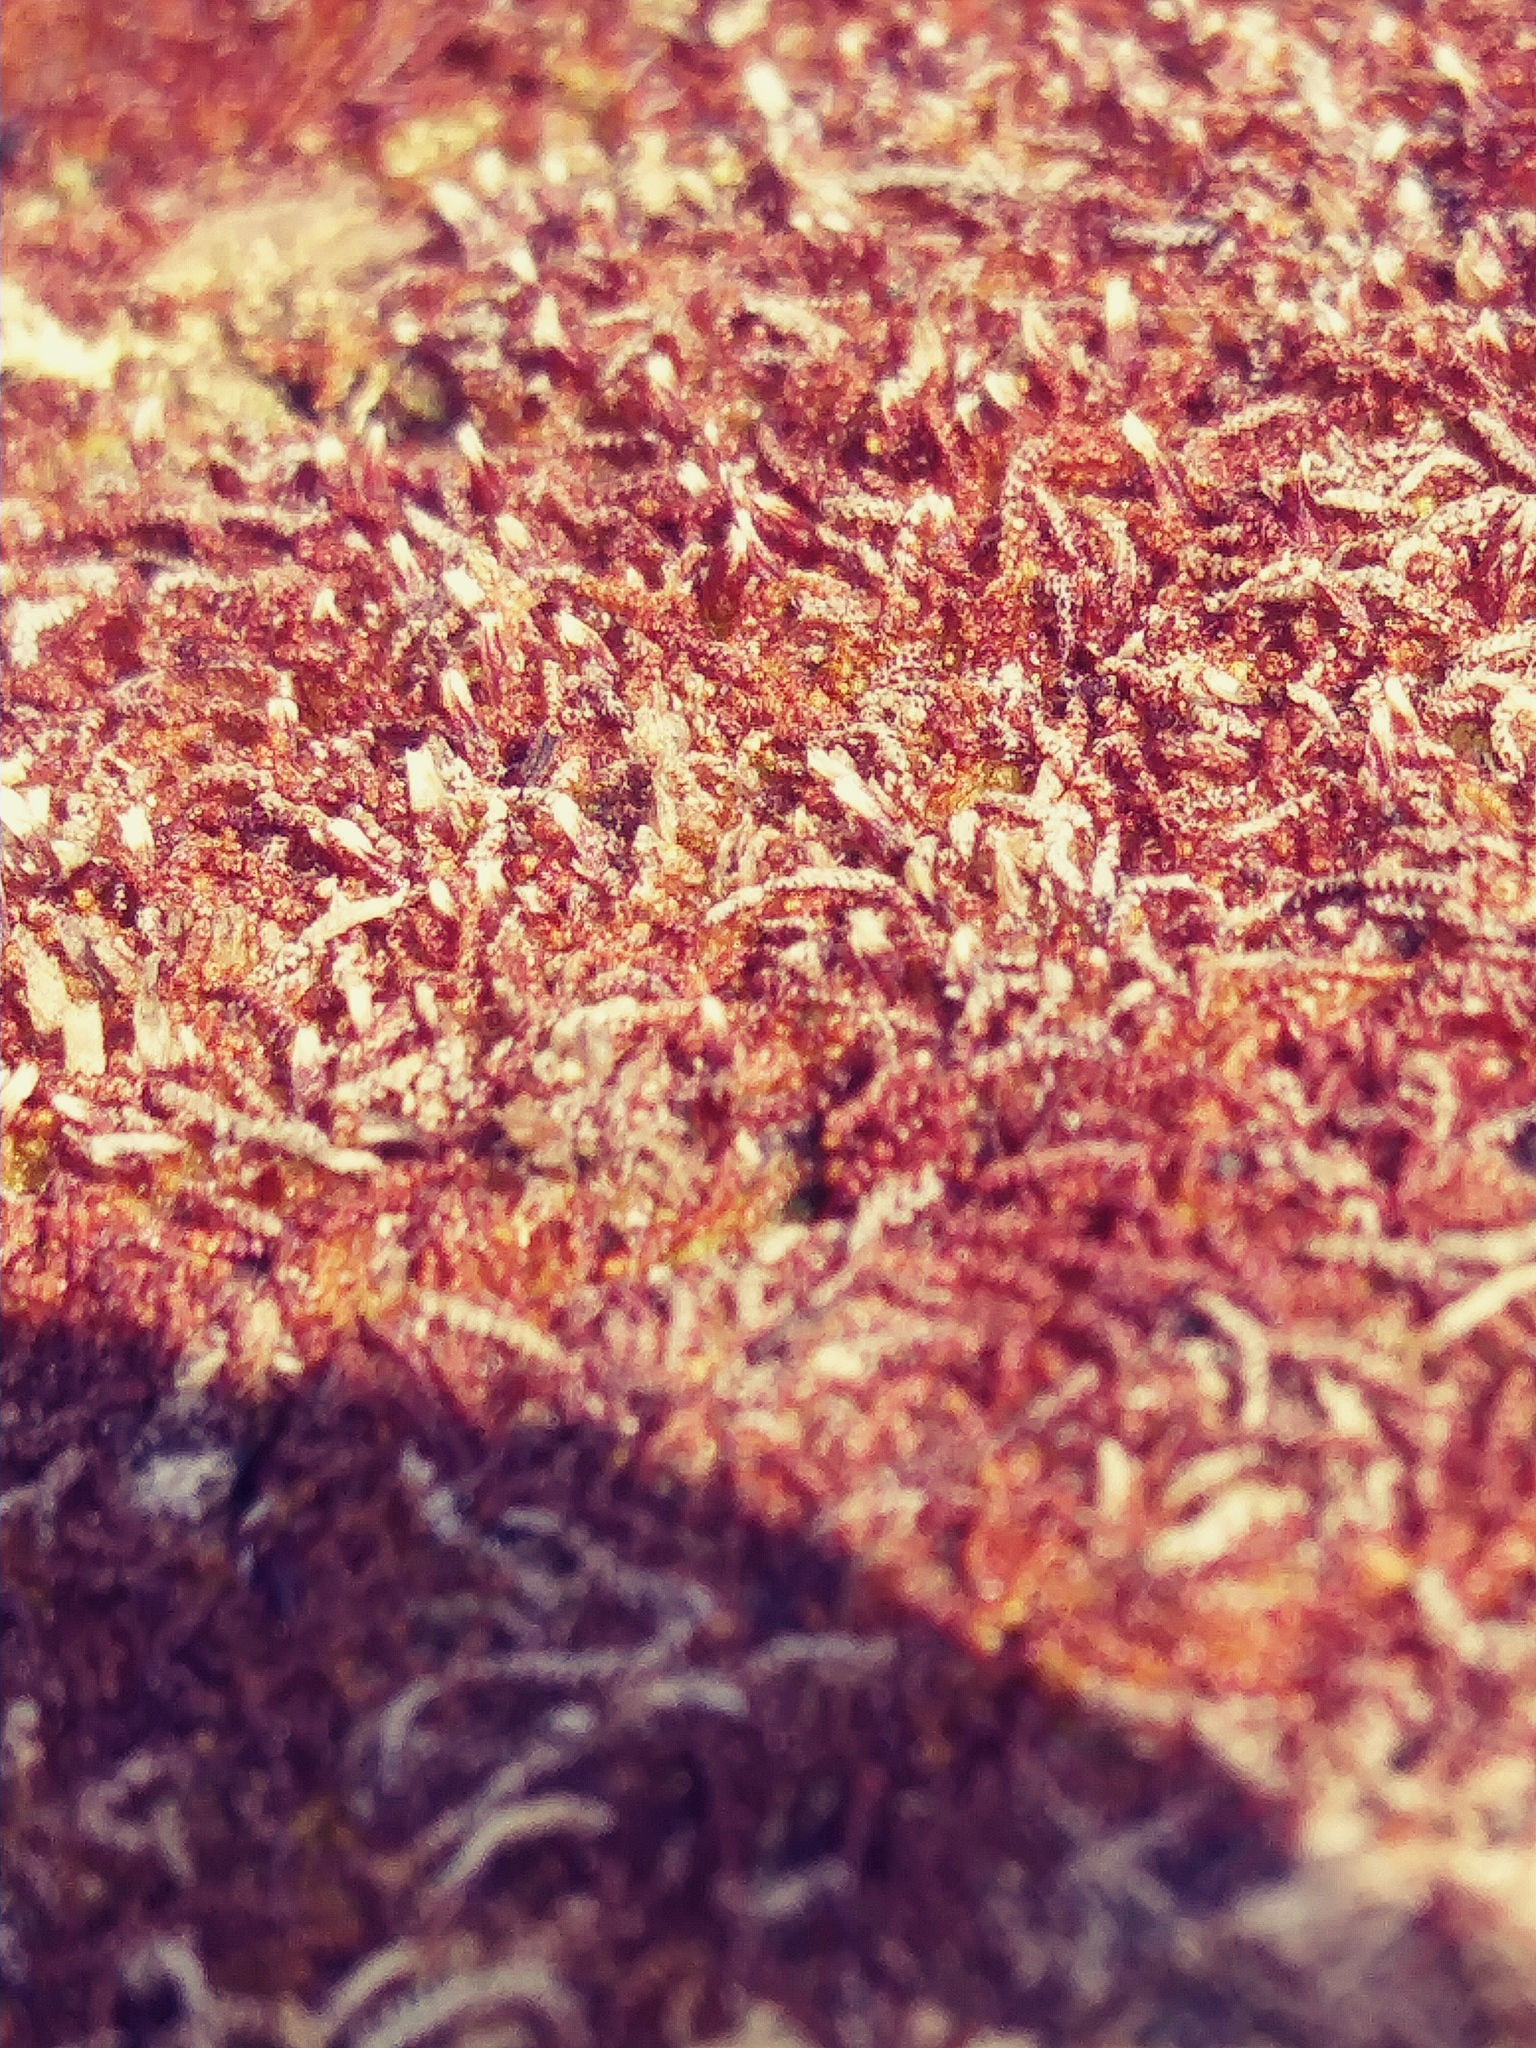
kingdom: Plantae
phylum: Marchantiophyta
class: Jungermanniopsida
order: Jungermanniales
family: Cephaloziaceae
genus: Nowellia
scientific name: Nowellia curvifolia
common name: Wood rustwort
